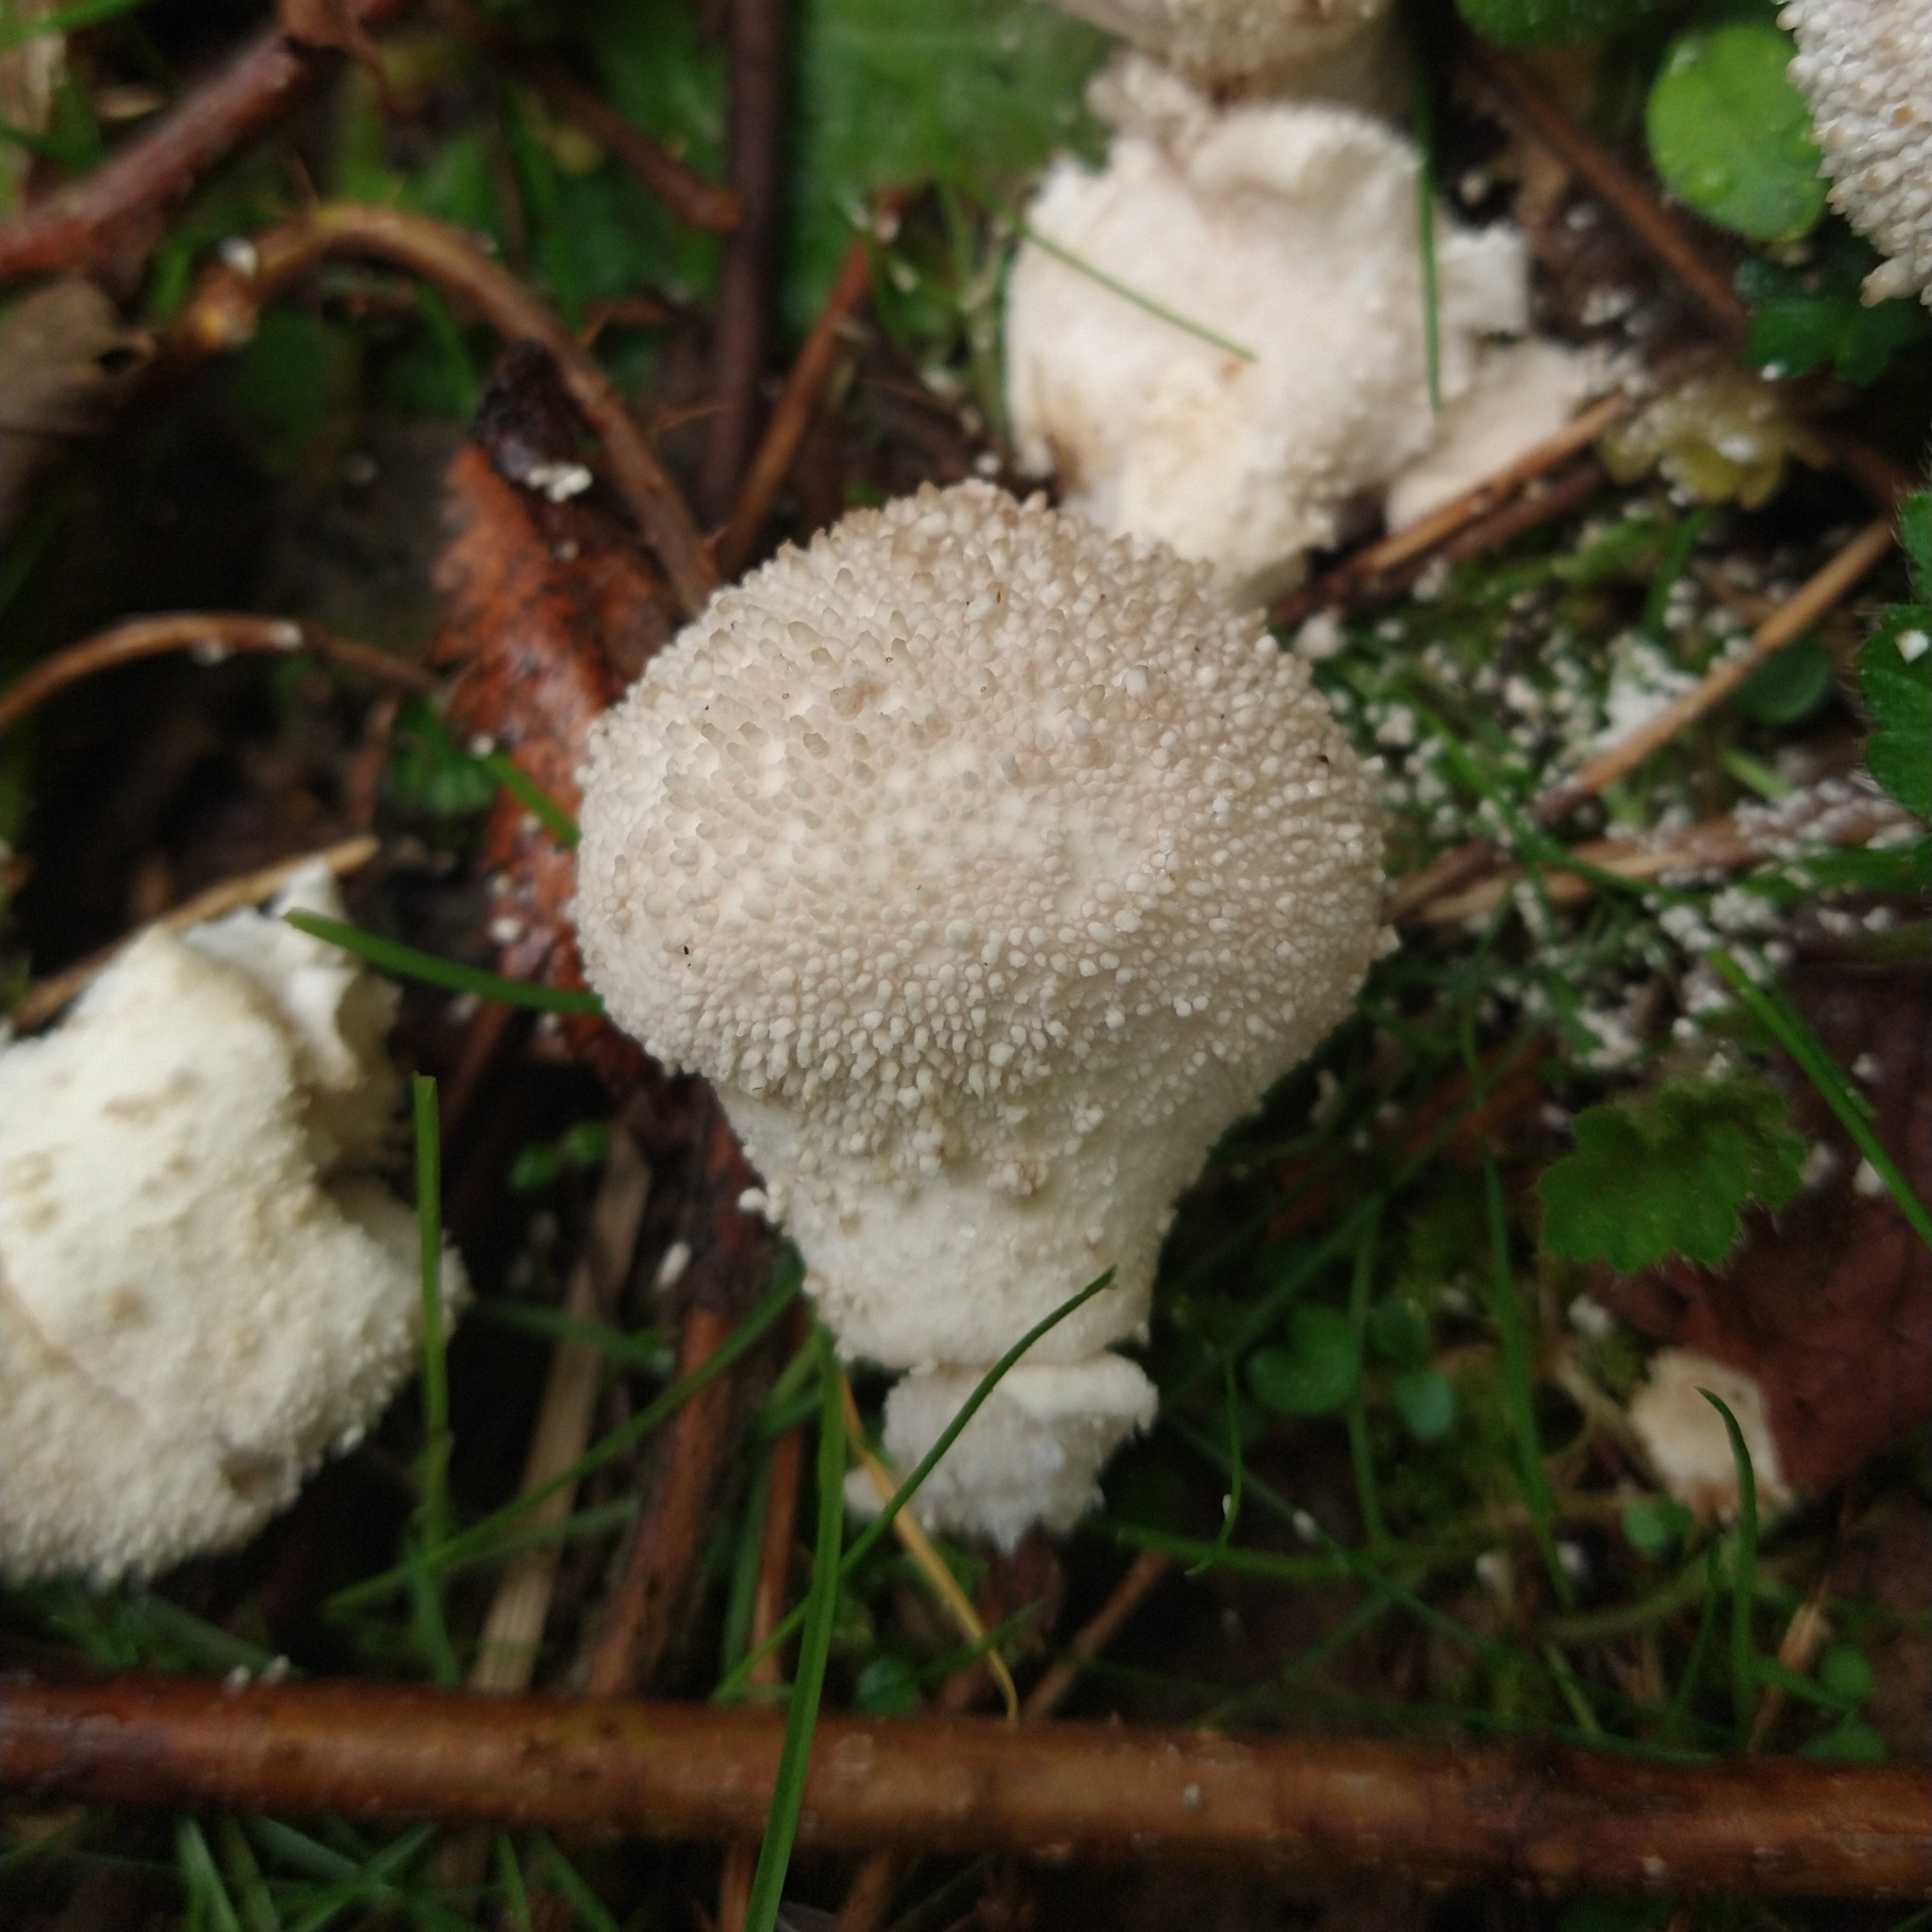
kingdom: Fungi
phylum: Basidiomycota
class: Agaricomycetes
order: Agaricales
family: Lycoperdaceae
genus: Lycoperdon
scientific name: Lycoperdon perlatum
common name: Common puffball
